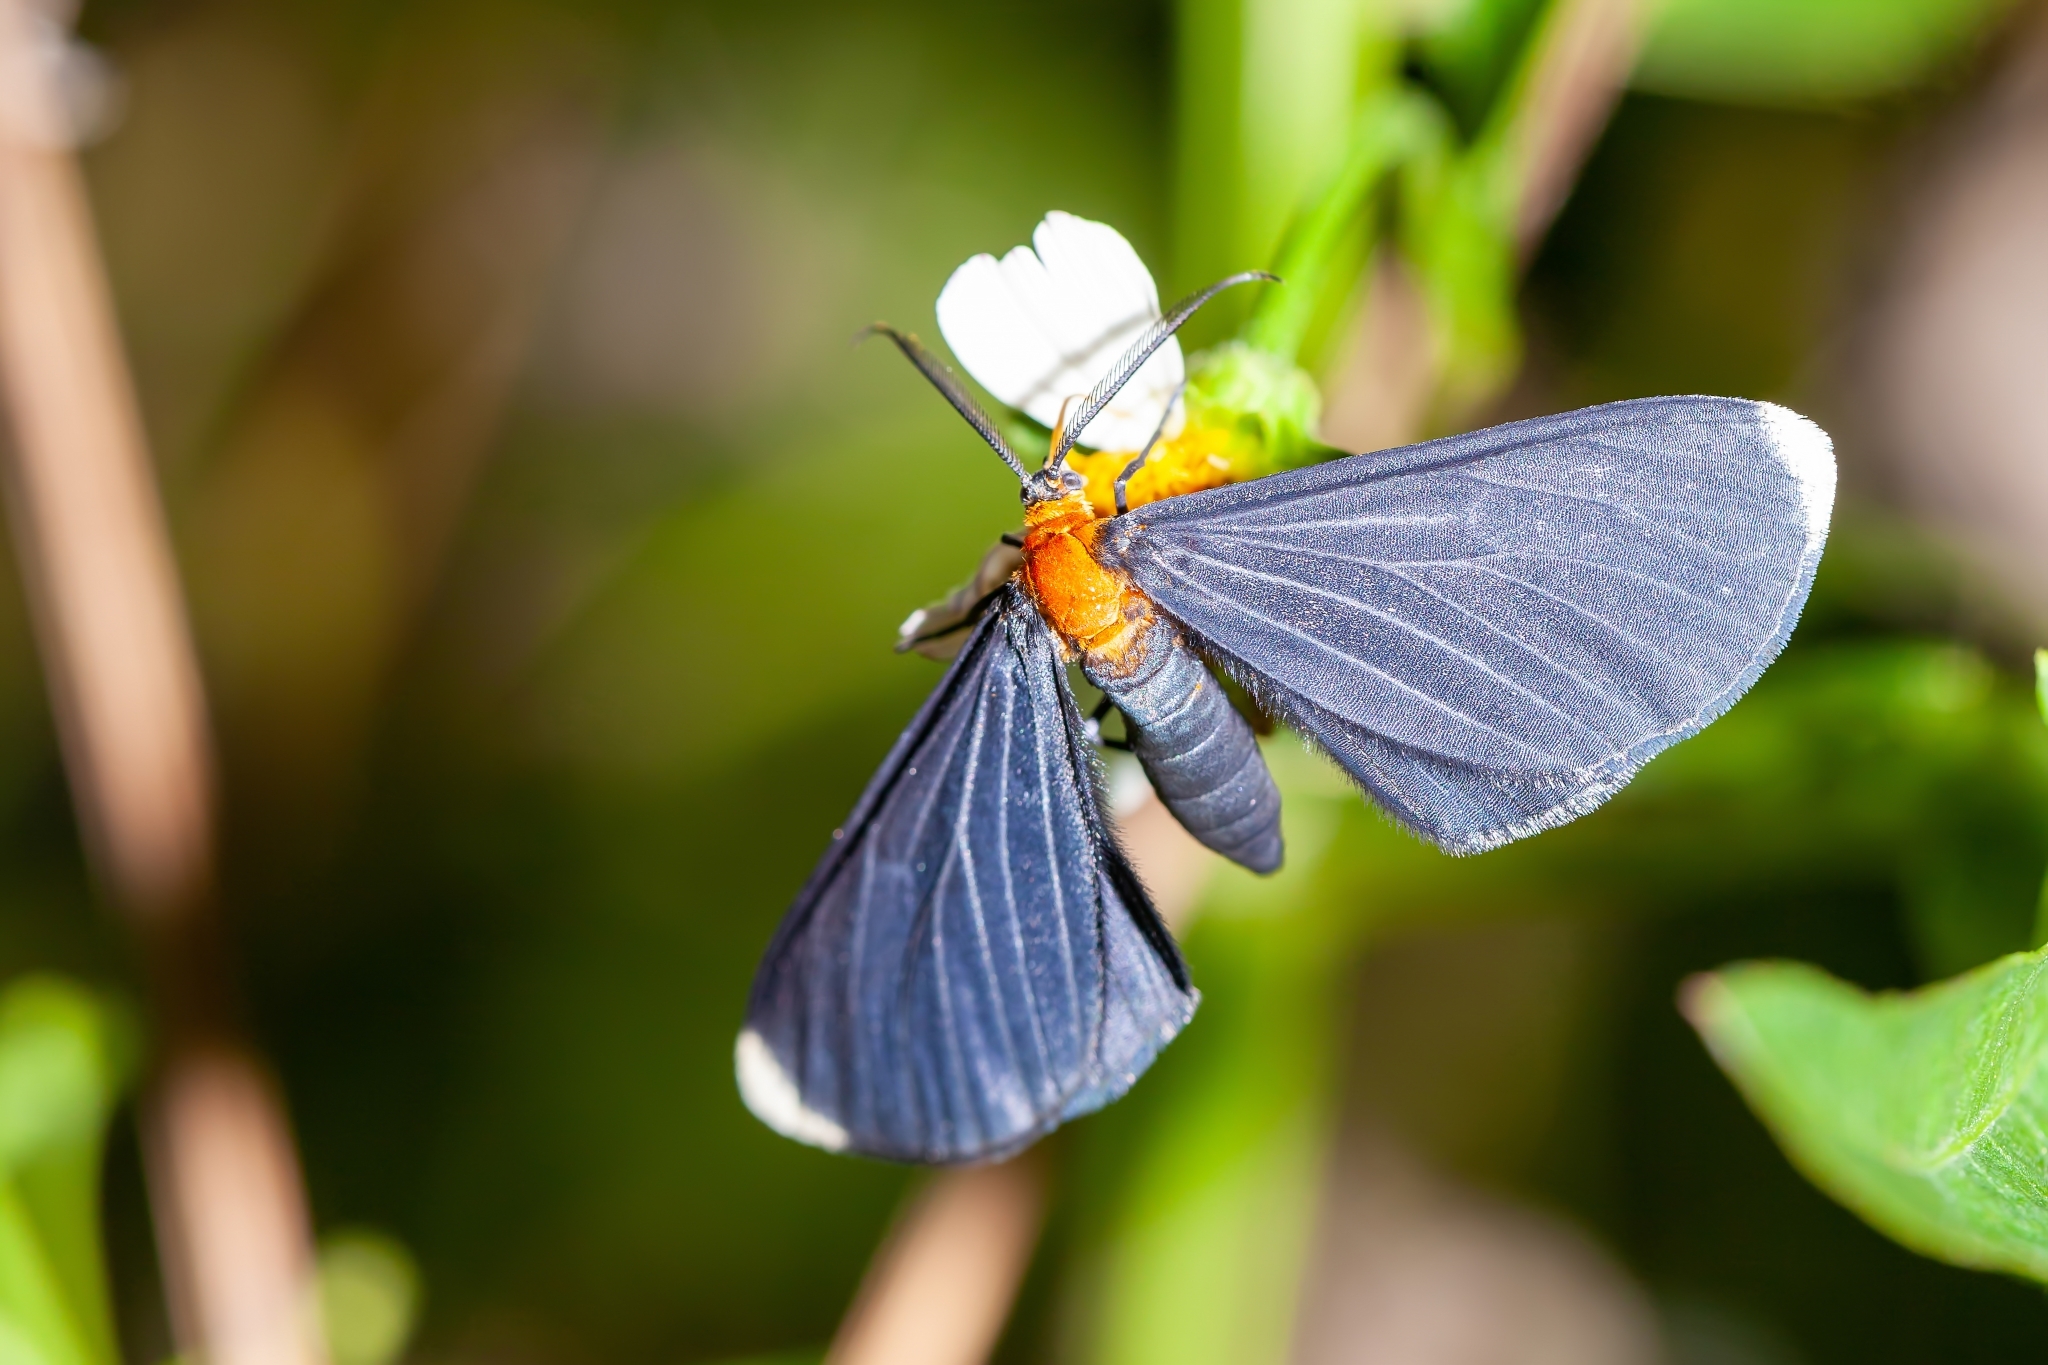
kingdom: Animalia
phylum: Arthropoda
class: Insecta
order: Lepidoptera
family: Geometridae
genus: Melanchroia
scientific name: Melanchroia chephise
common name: White-tipped black
